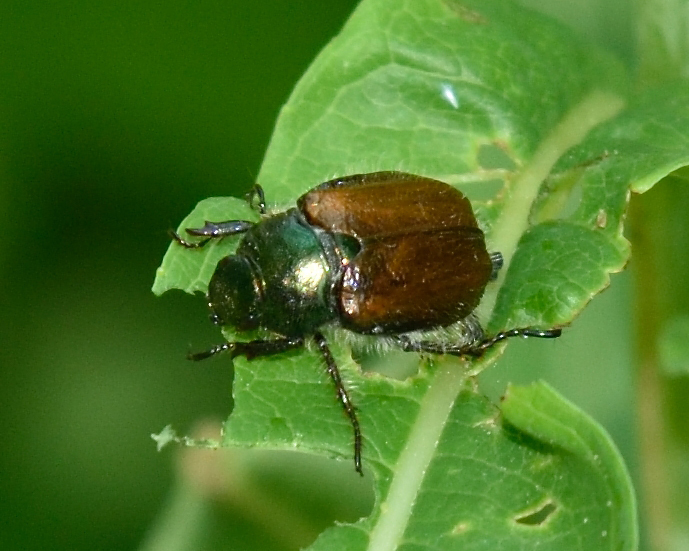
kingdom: Animalia
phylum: Arthropoda
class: Insecta
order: Coleoptera
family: Scarabaeidae
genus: Phyllopertha
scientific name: Phyllopertha horticola
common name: Garden chafer
